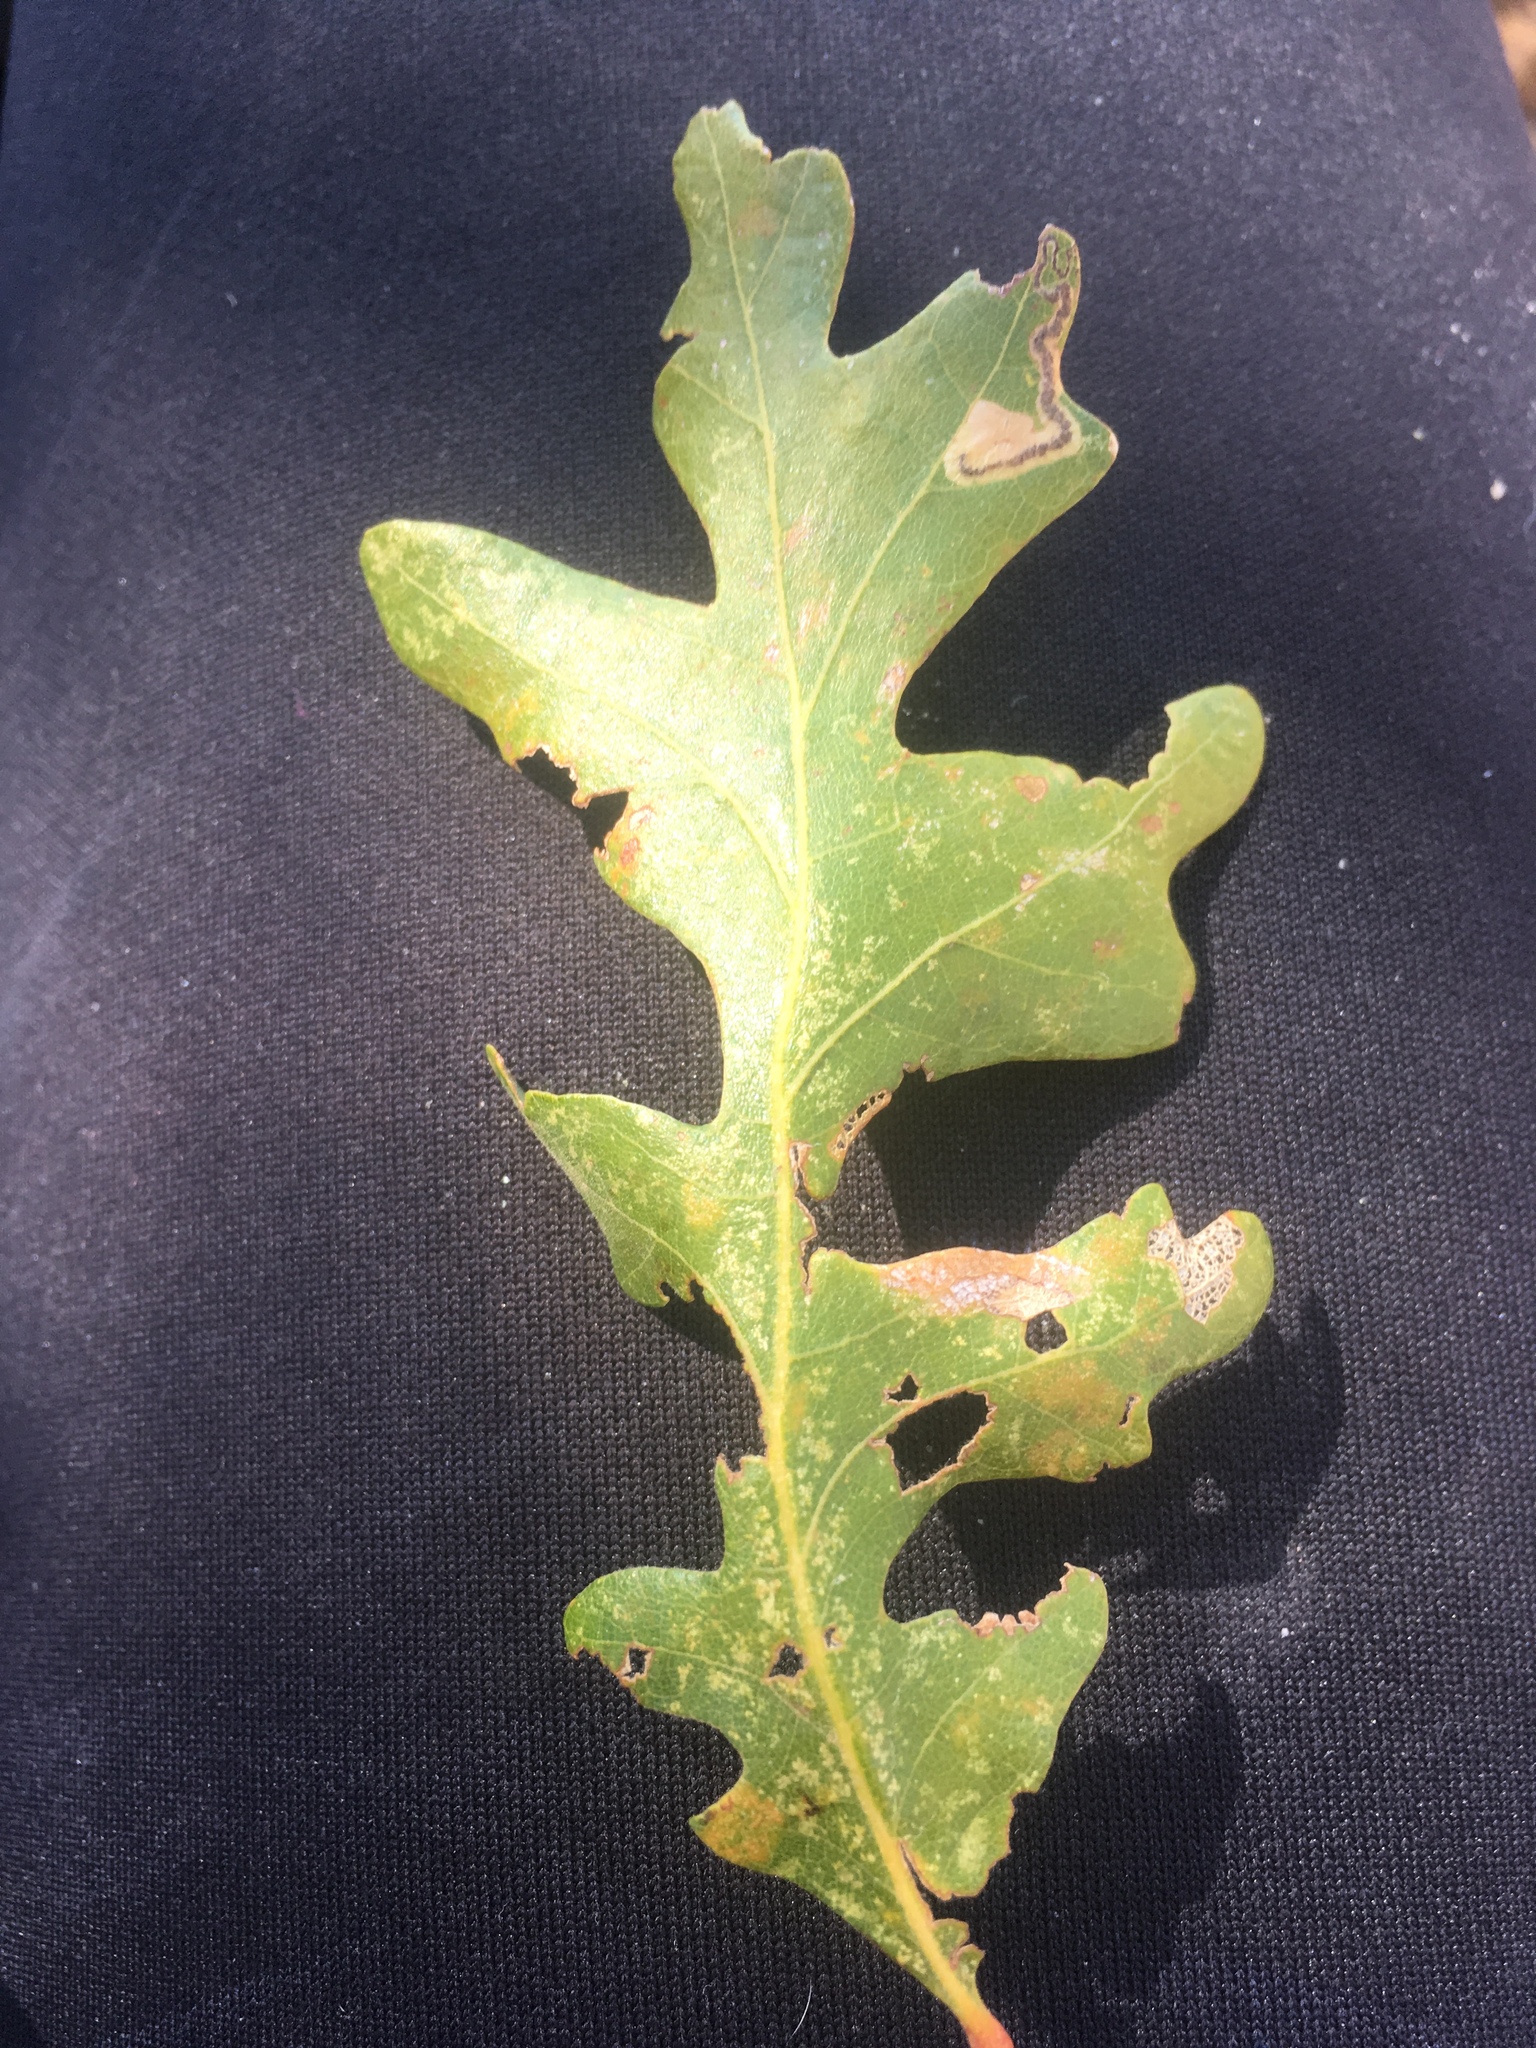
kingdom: Plantae
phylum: Tracheophyta
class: Magnoliopsida
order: Fagales
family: Fagaceae
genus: Quercus
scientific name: Quercus gambelii
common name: Gambel oak
